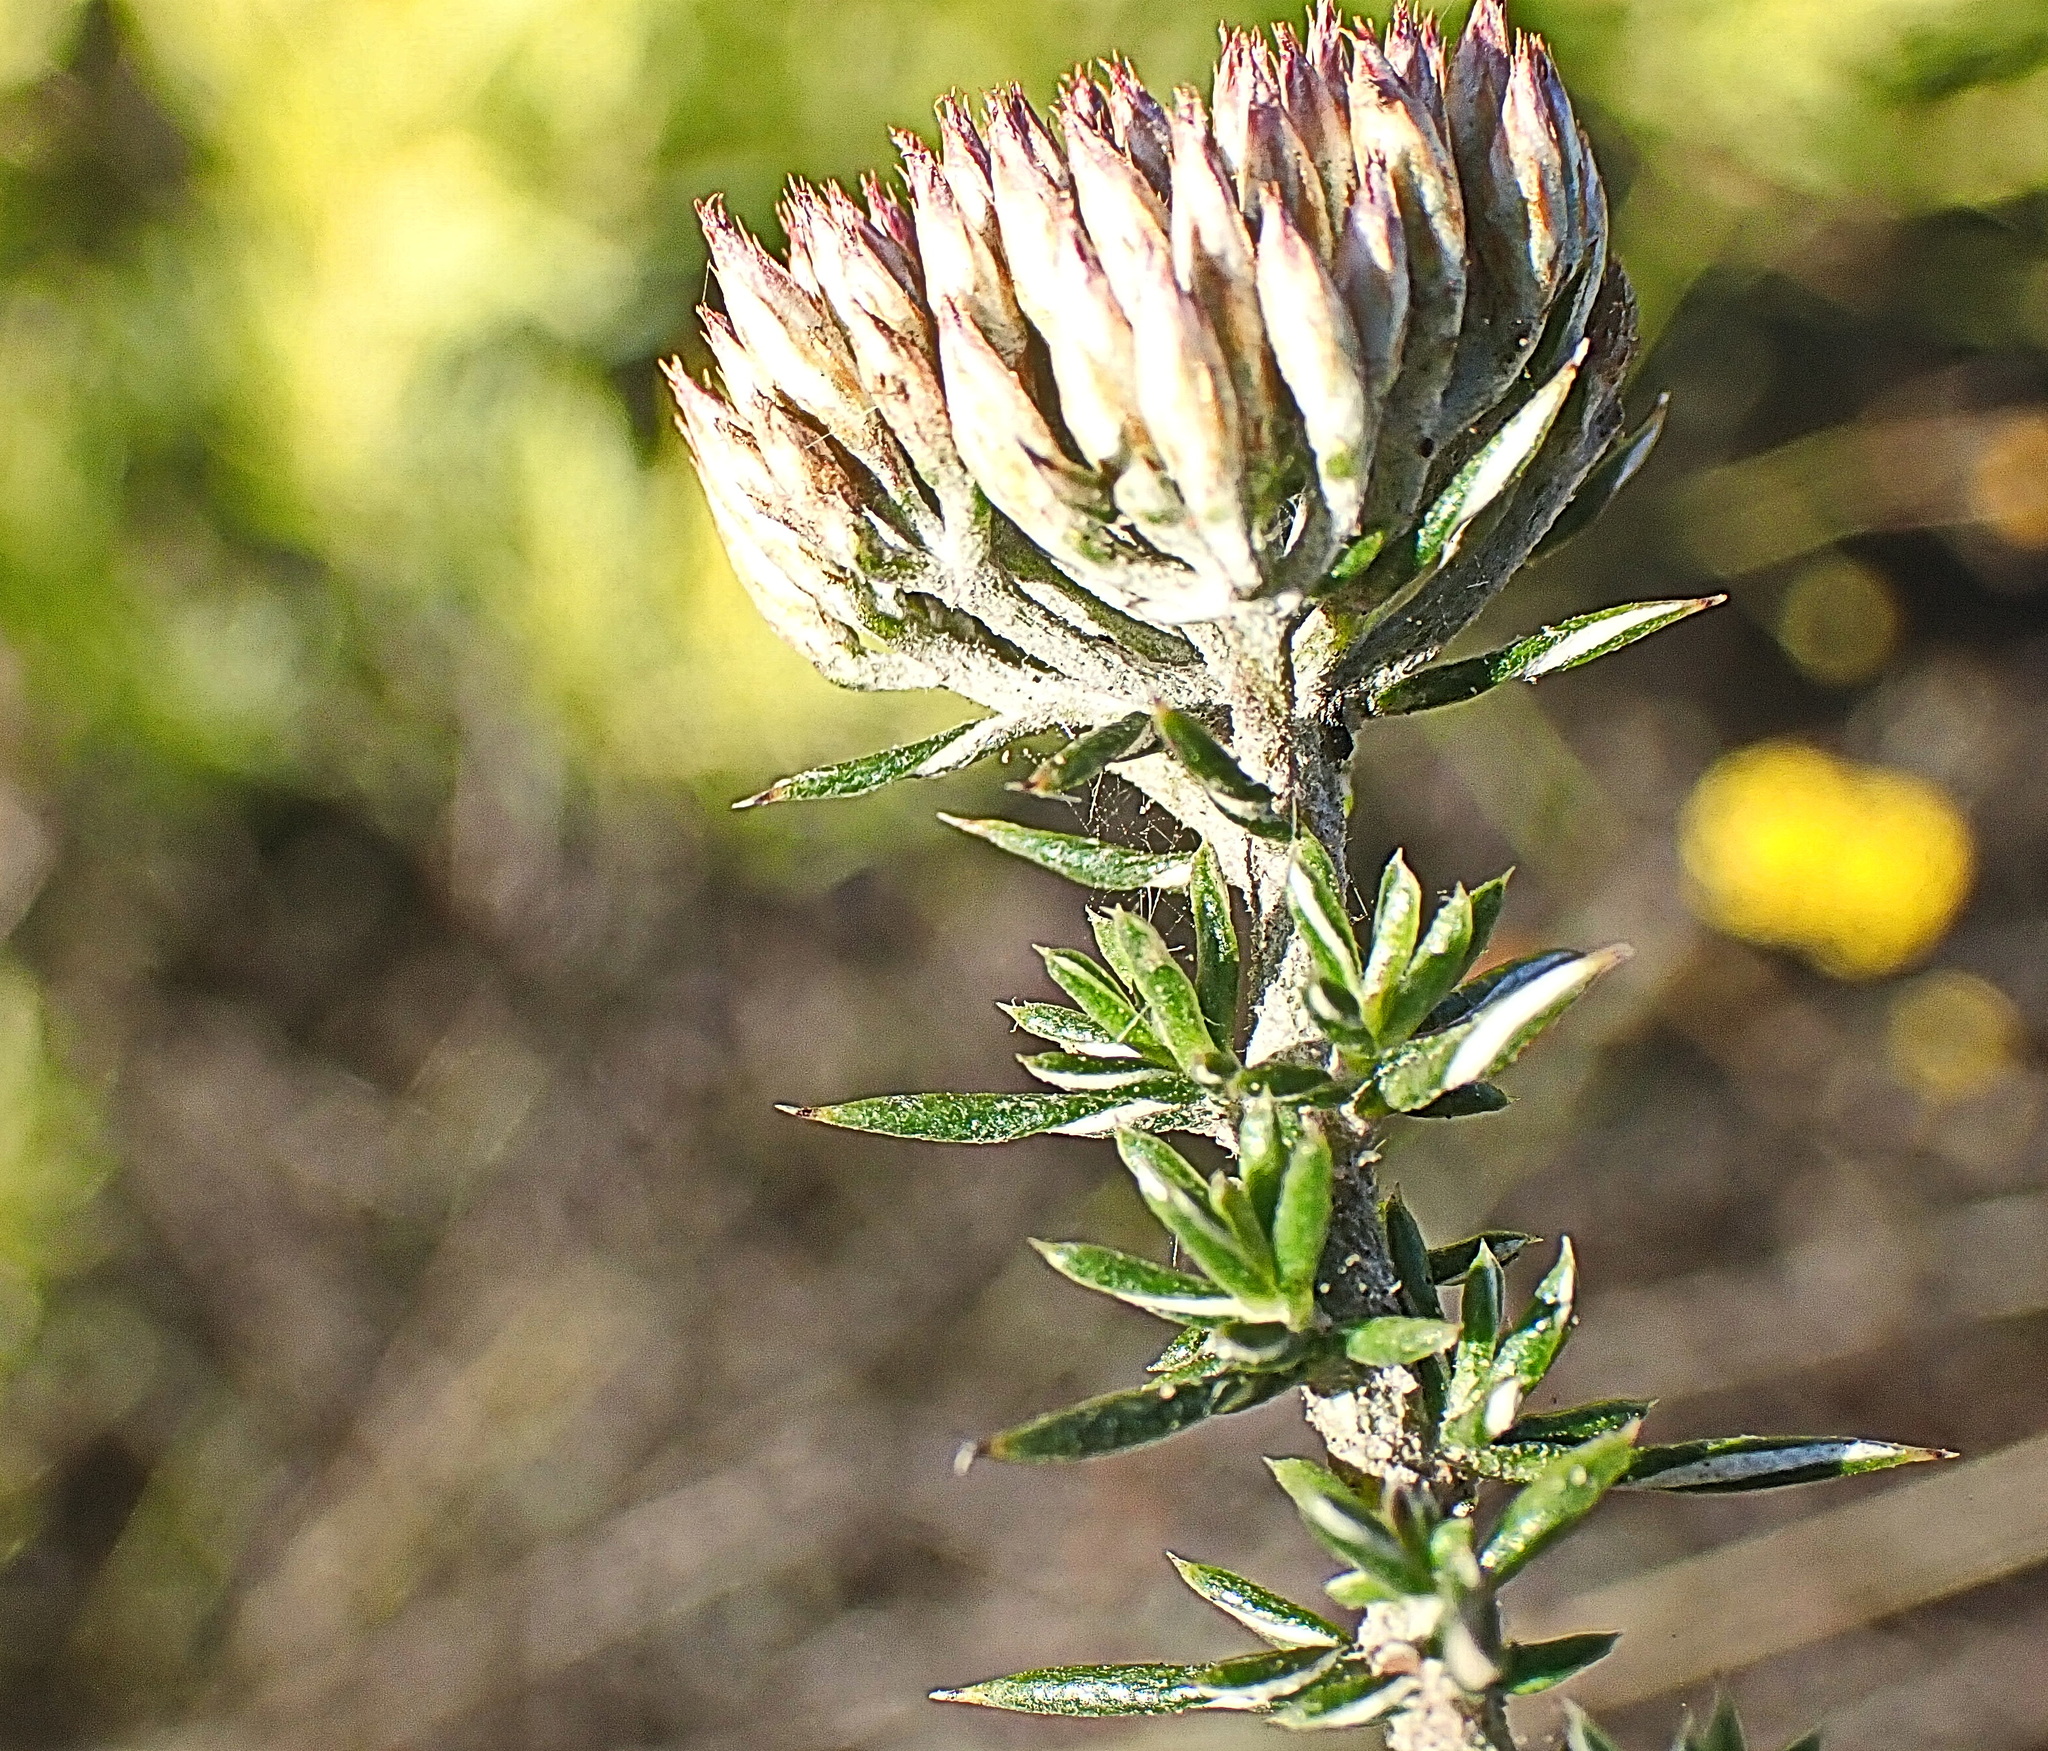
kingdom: Plantae
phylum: Tracheophyta
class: Magnoliopsida
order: Asterales
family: Asteraceae
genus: Metalasia
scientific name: Metalasia pungens
